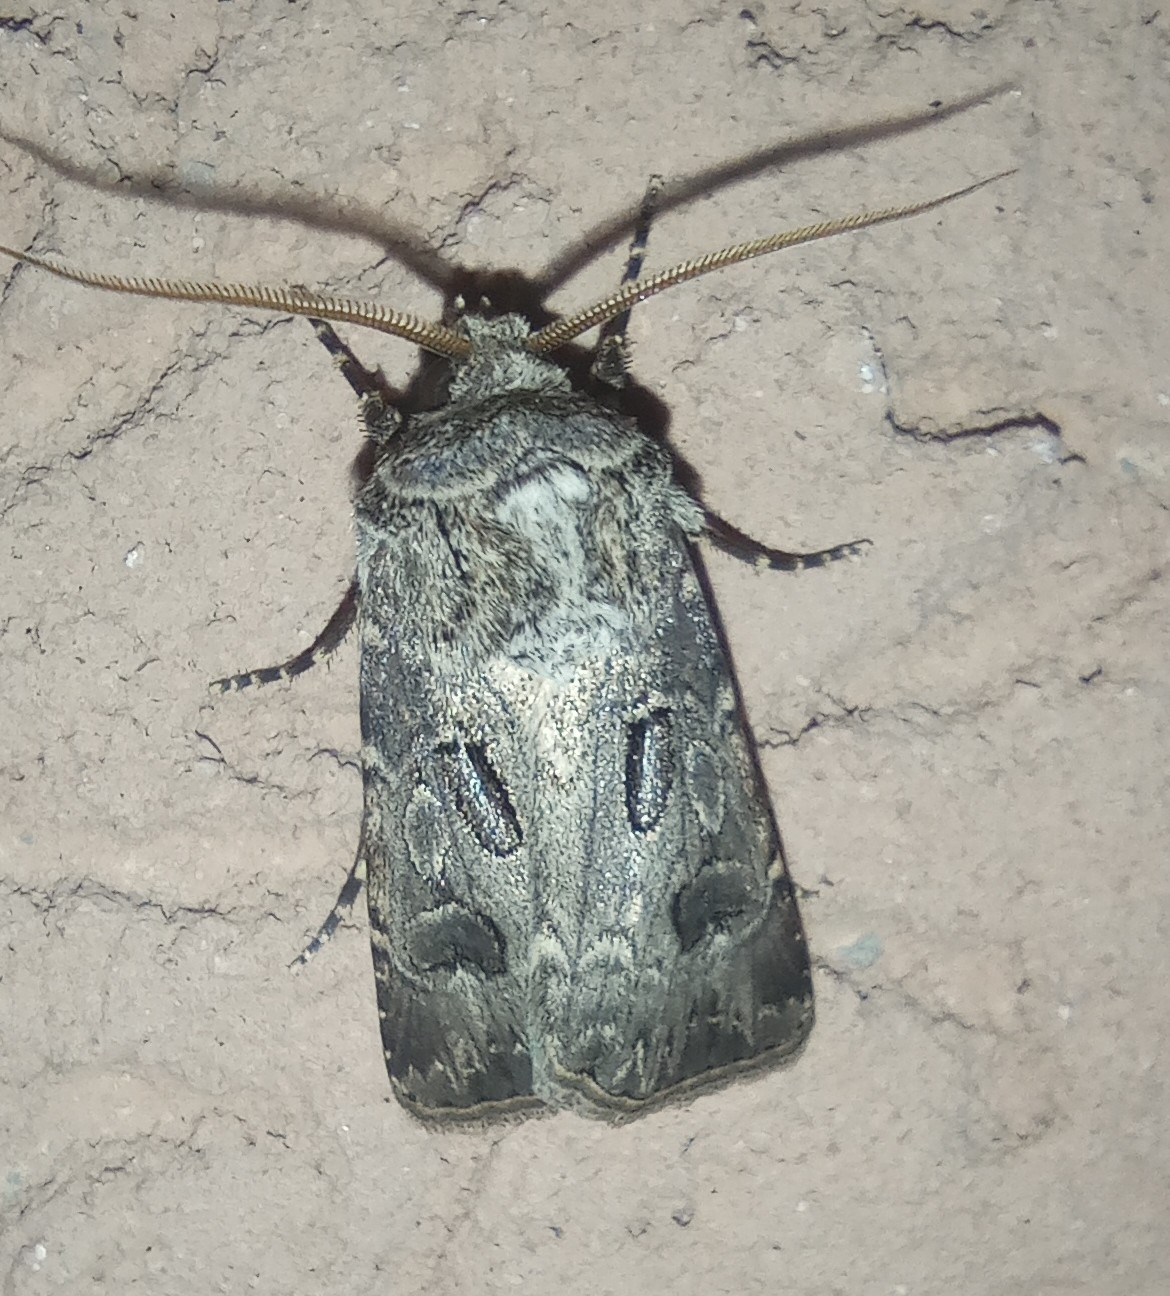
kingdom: Animalia
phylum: Arthropoda
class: Insecta
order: Lepidoptera
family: Noctuidae
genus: Agrotis
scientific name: Agrotis bigramma
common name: Great dart
